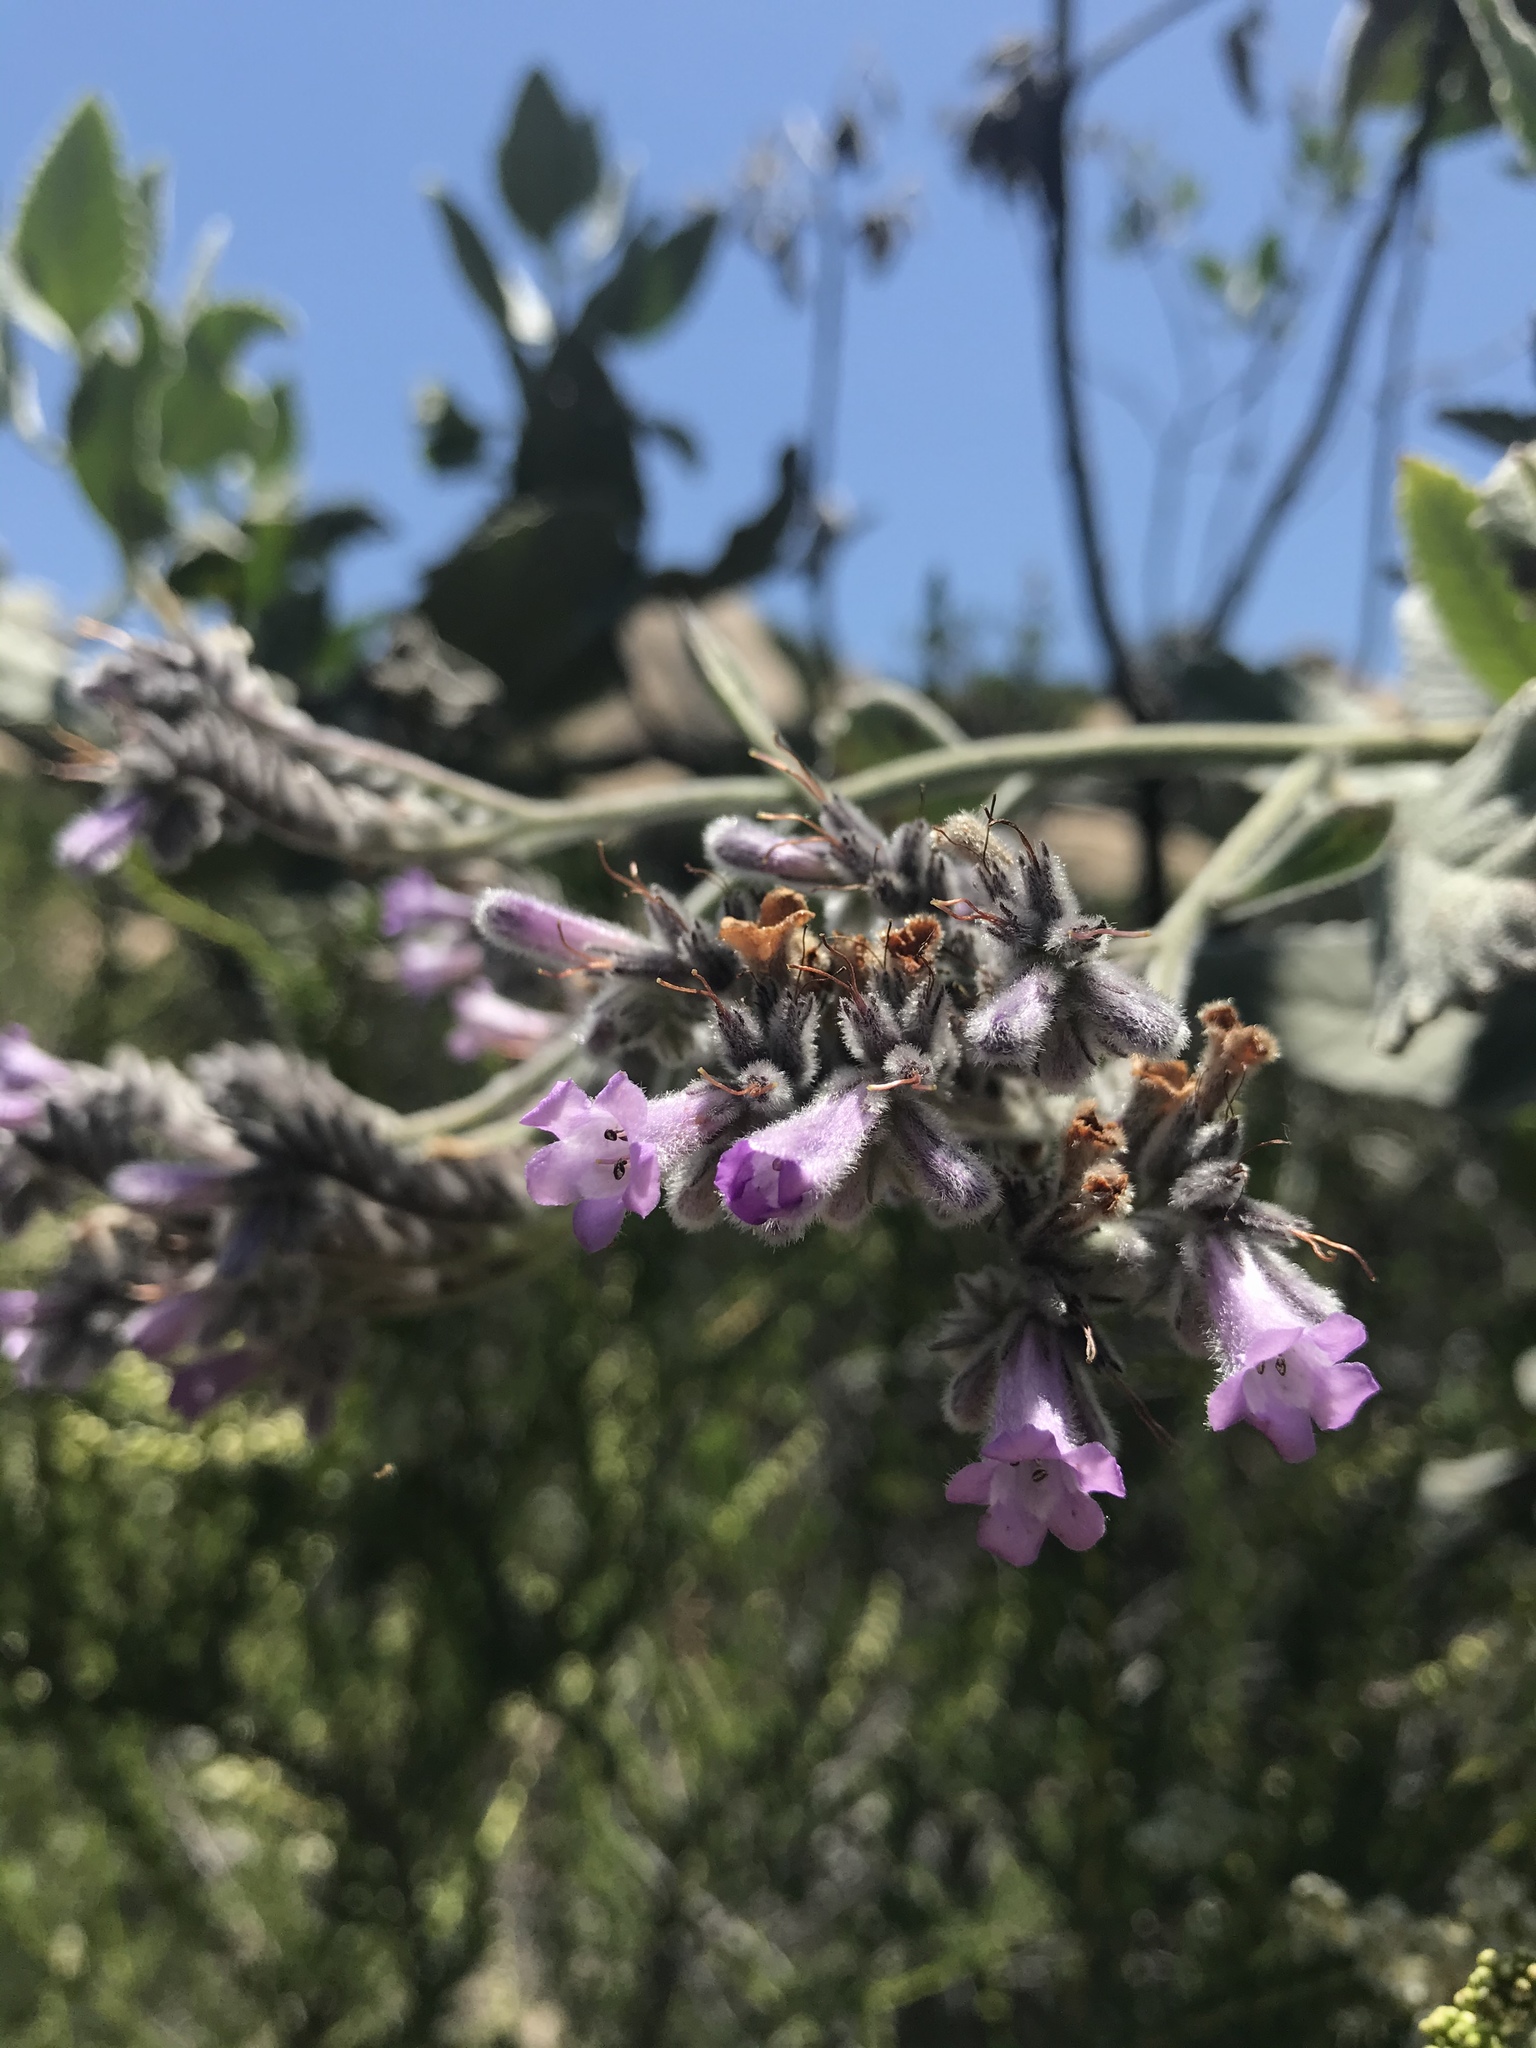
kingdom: Plantae
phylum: Tracheophyta
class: Magnoliopsida
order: Boraginales
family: Namaceae
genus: Eriodictyon
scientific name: Eriodictyon crassifolium
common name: Thick-leaf yerba-santa
